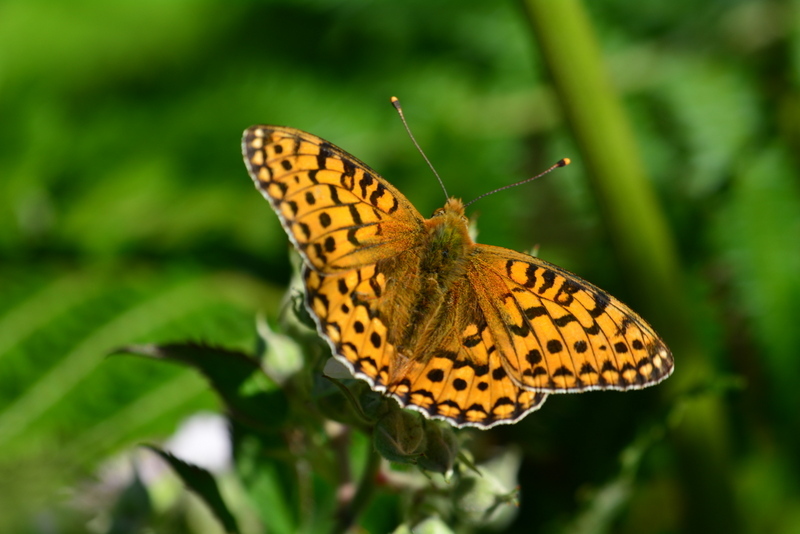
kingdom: Animalia
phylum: Arthropoda
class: Insecta
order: Lepidoptera
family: Nymphalidae
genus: Speyeria
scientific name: Speyeria aglaja
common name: Dark green fritillary
